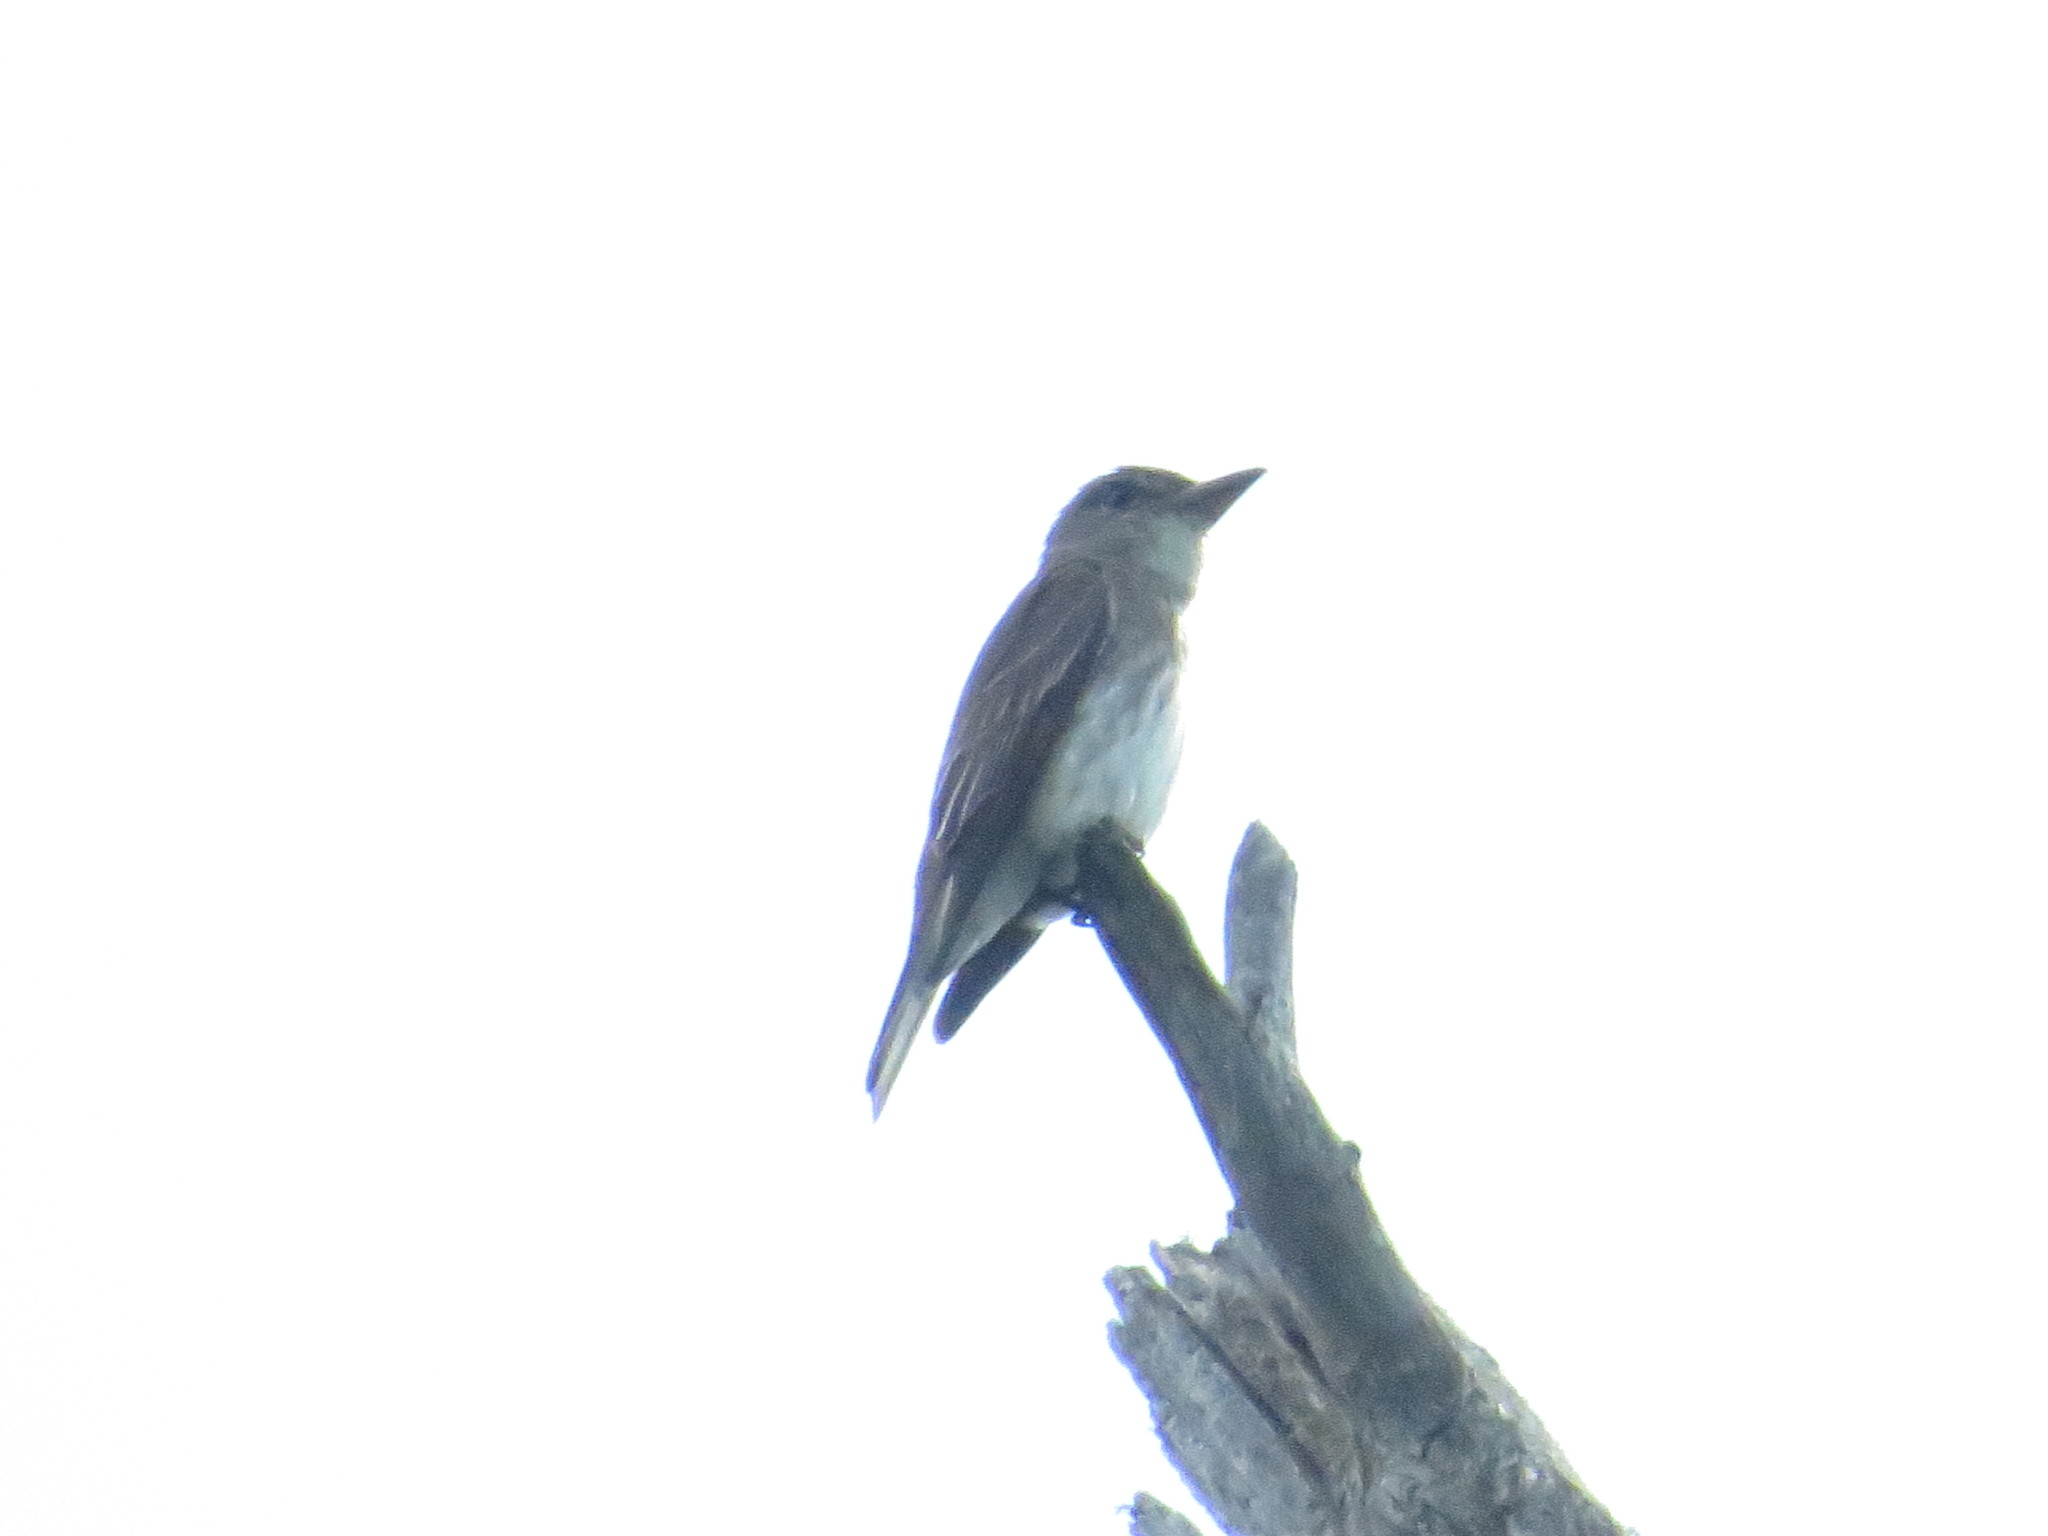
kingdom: Animalia
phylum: Chordata
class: Aves
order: Passeriformes
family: Tyrannidae
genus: Contopus
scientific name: Contopus cooperi
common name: Olive-sided flycatcher
